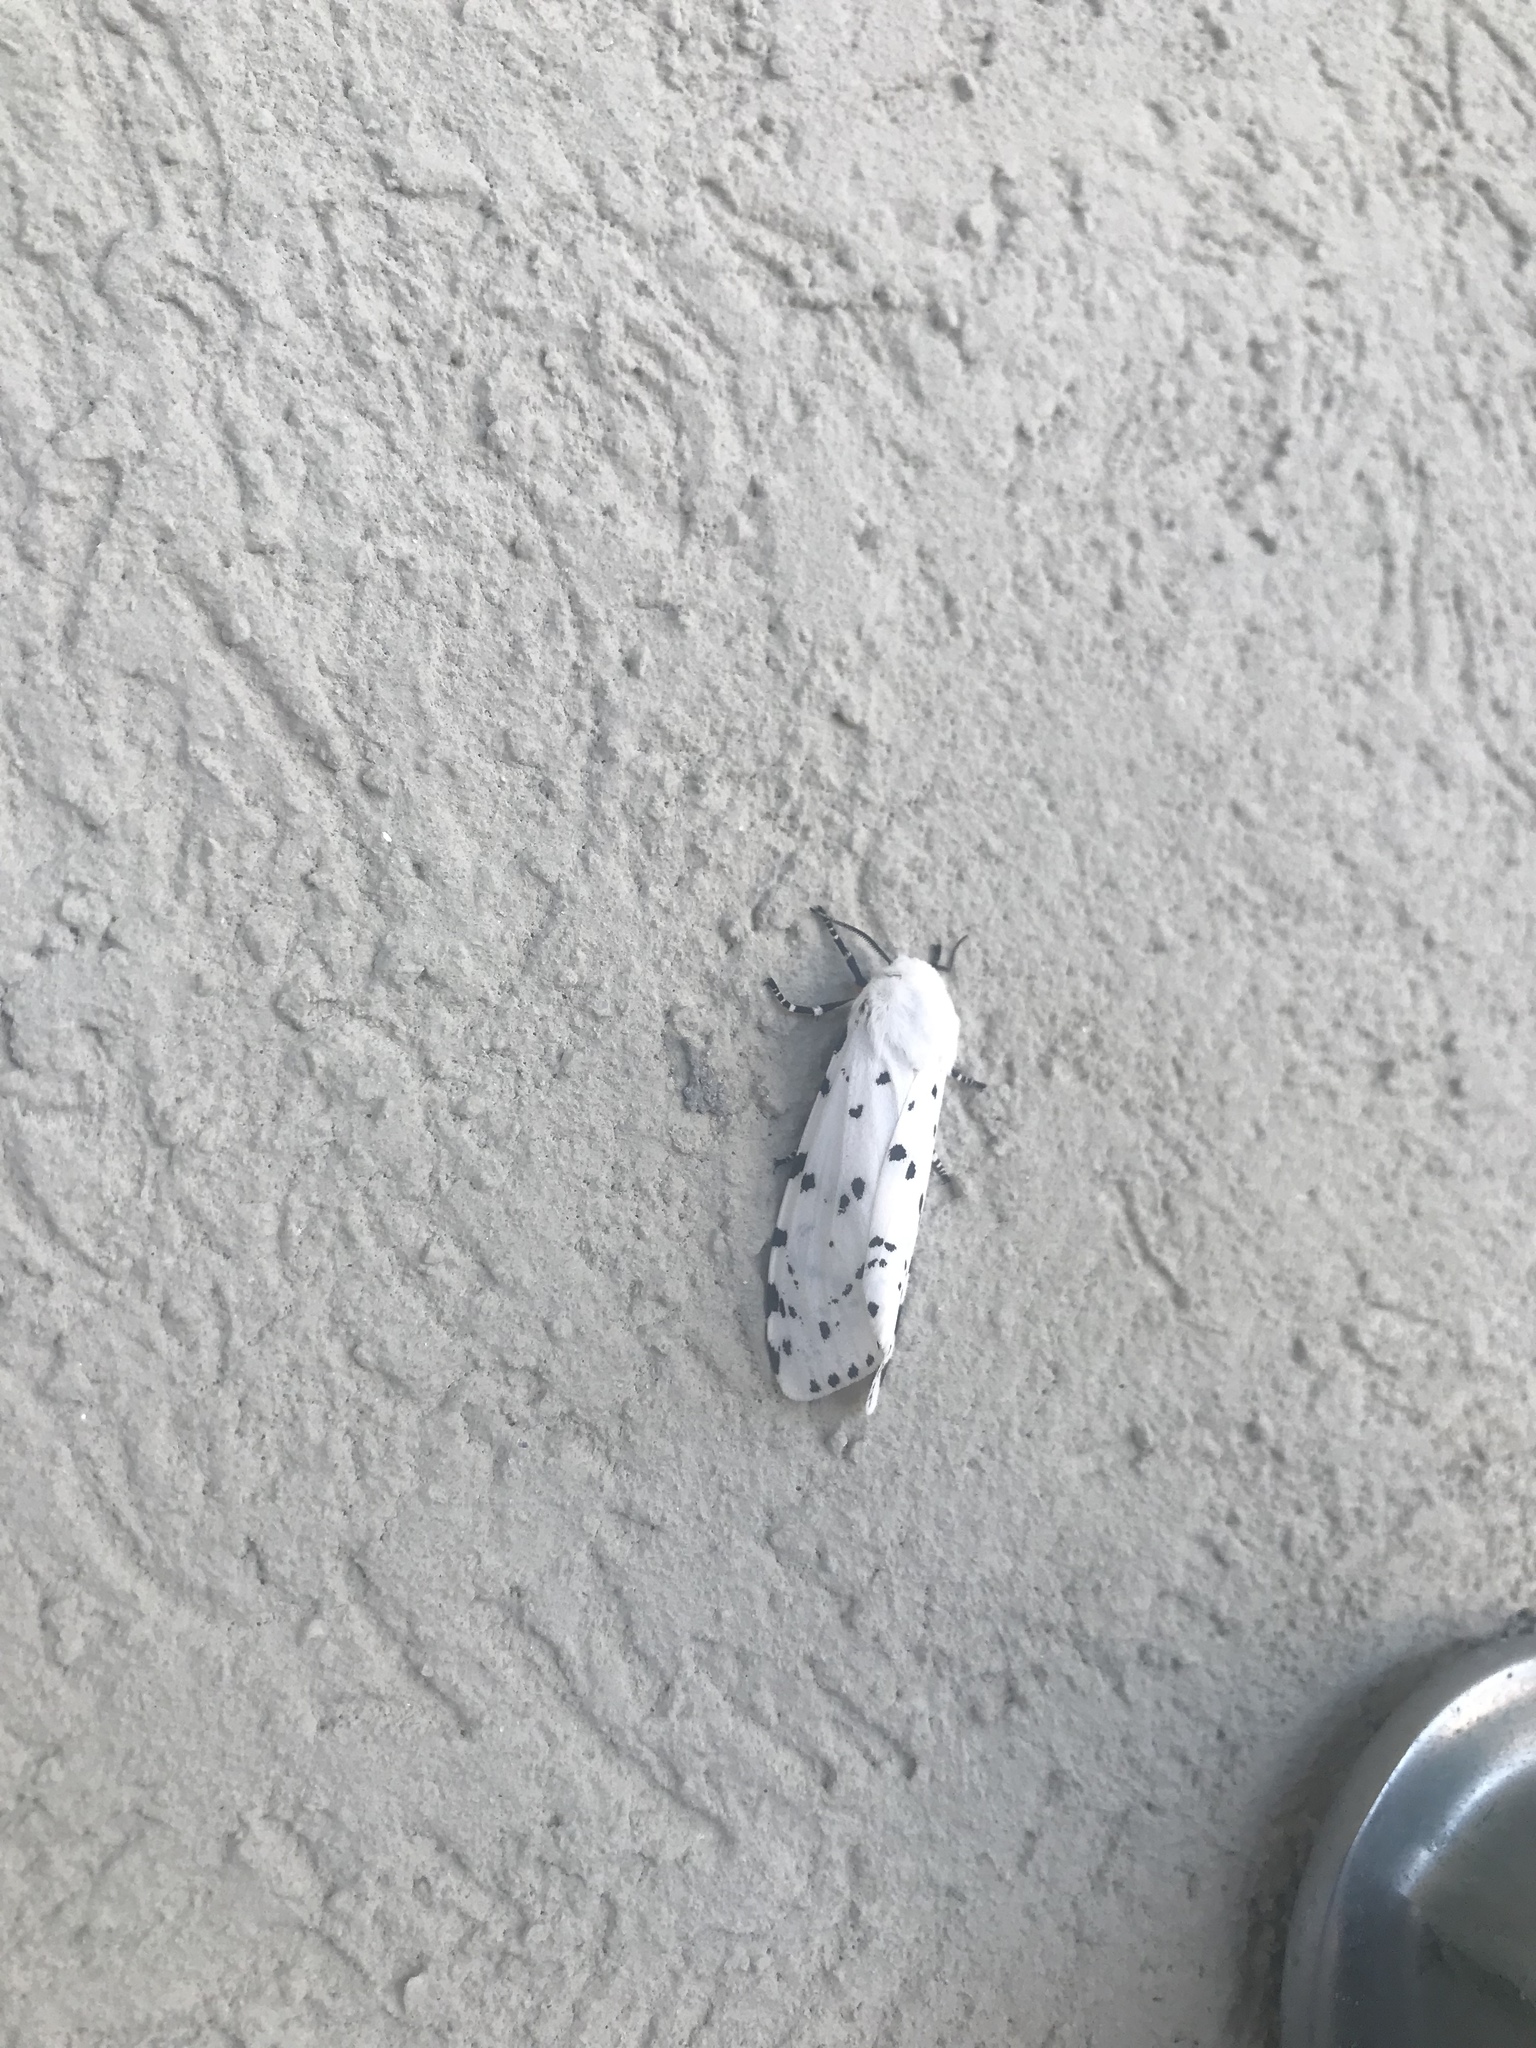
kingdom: Animalia
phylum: Arthropoda
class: Insecta
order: Lepidoptera
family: Erebidae
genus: Estigmene
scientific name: Estigmene acrea
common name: Salt marsh moth
